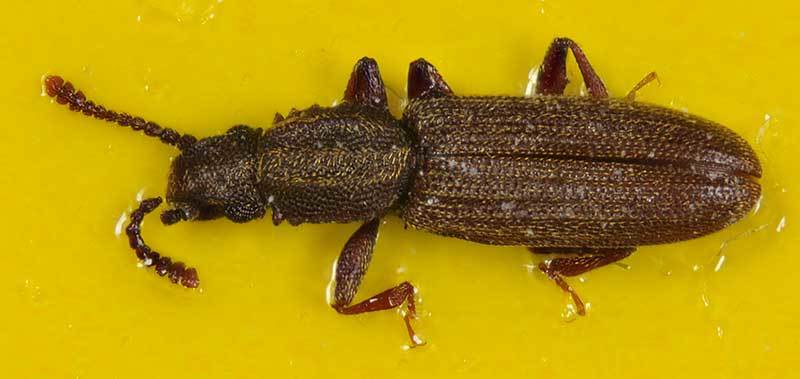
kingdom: Animalia
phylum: Arthropoda
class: Insecta
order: Coleoptera
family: Silvanidae
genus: Oryzaephilus
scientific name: Oryzaephilus mercator
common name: Merchant grain beetle
